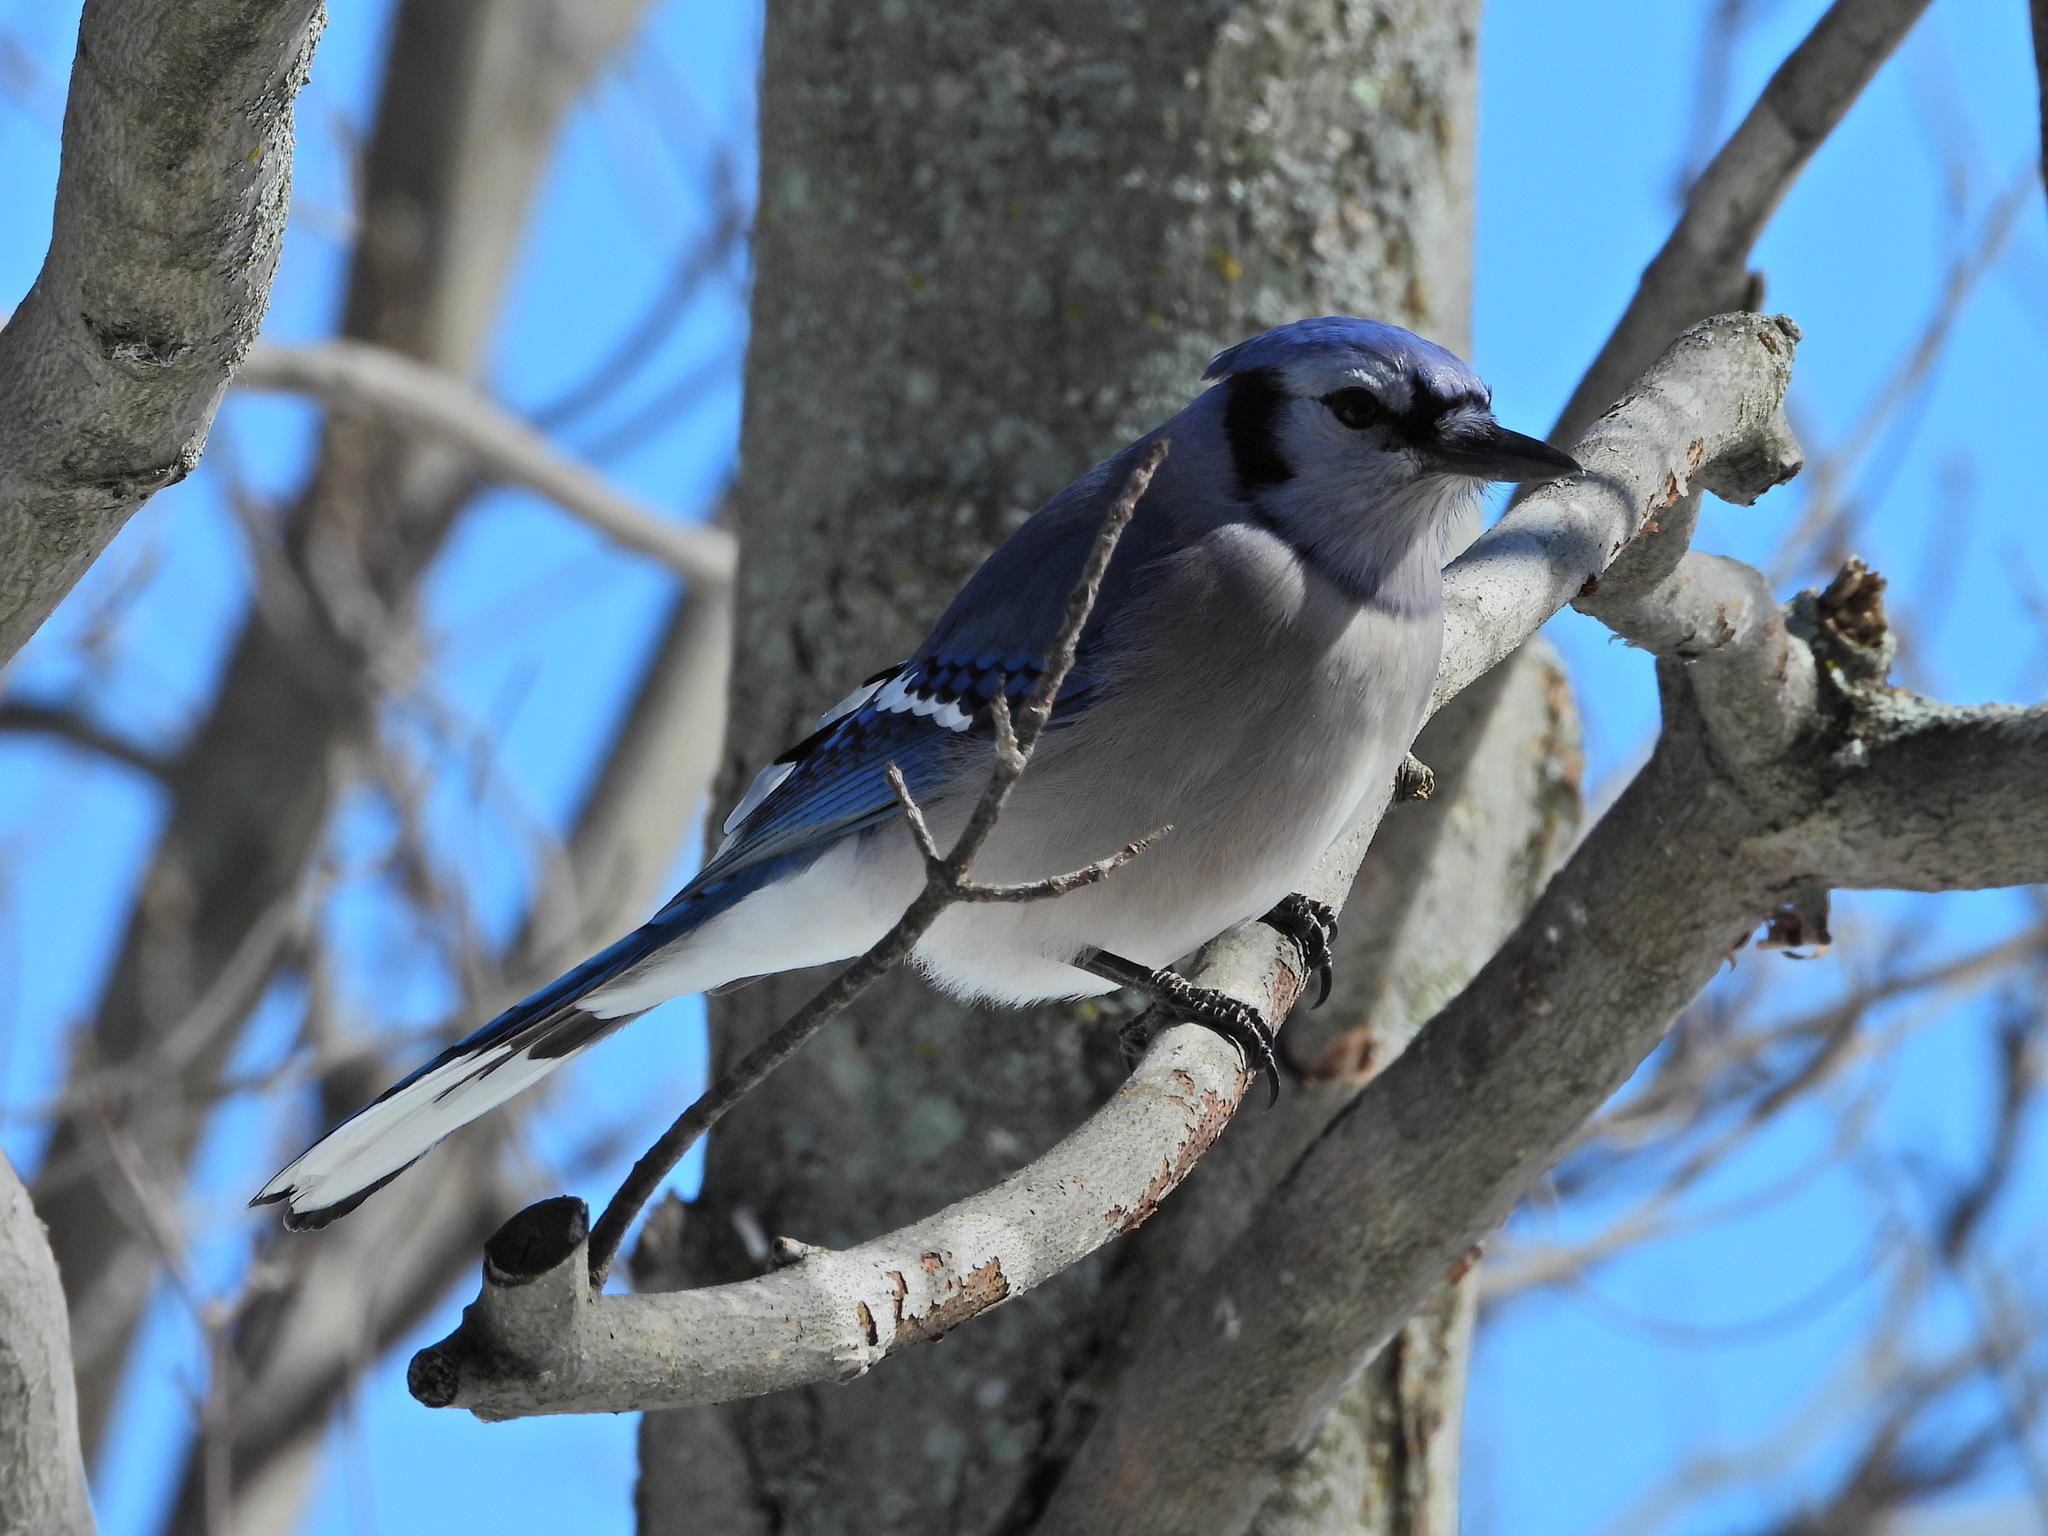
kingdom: Animalia
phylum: Chordata
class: Aves
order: Passeriformes
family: Corvidae
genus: Cyanocitta
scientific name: Cyanocitta cristata
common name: Blue jay
